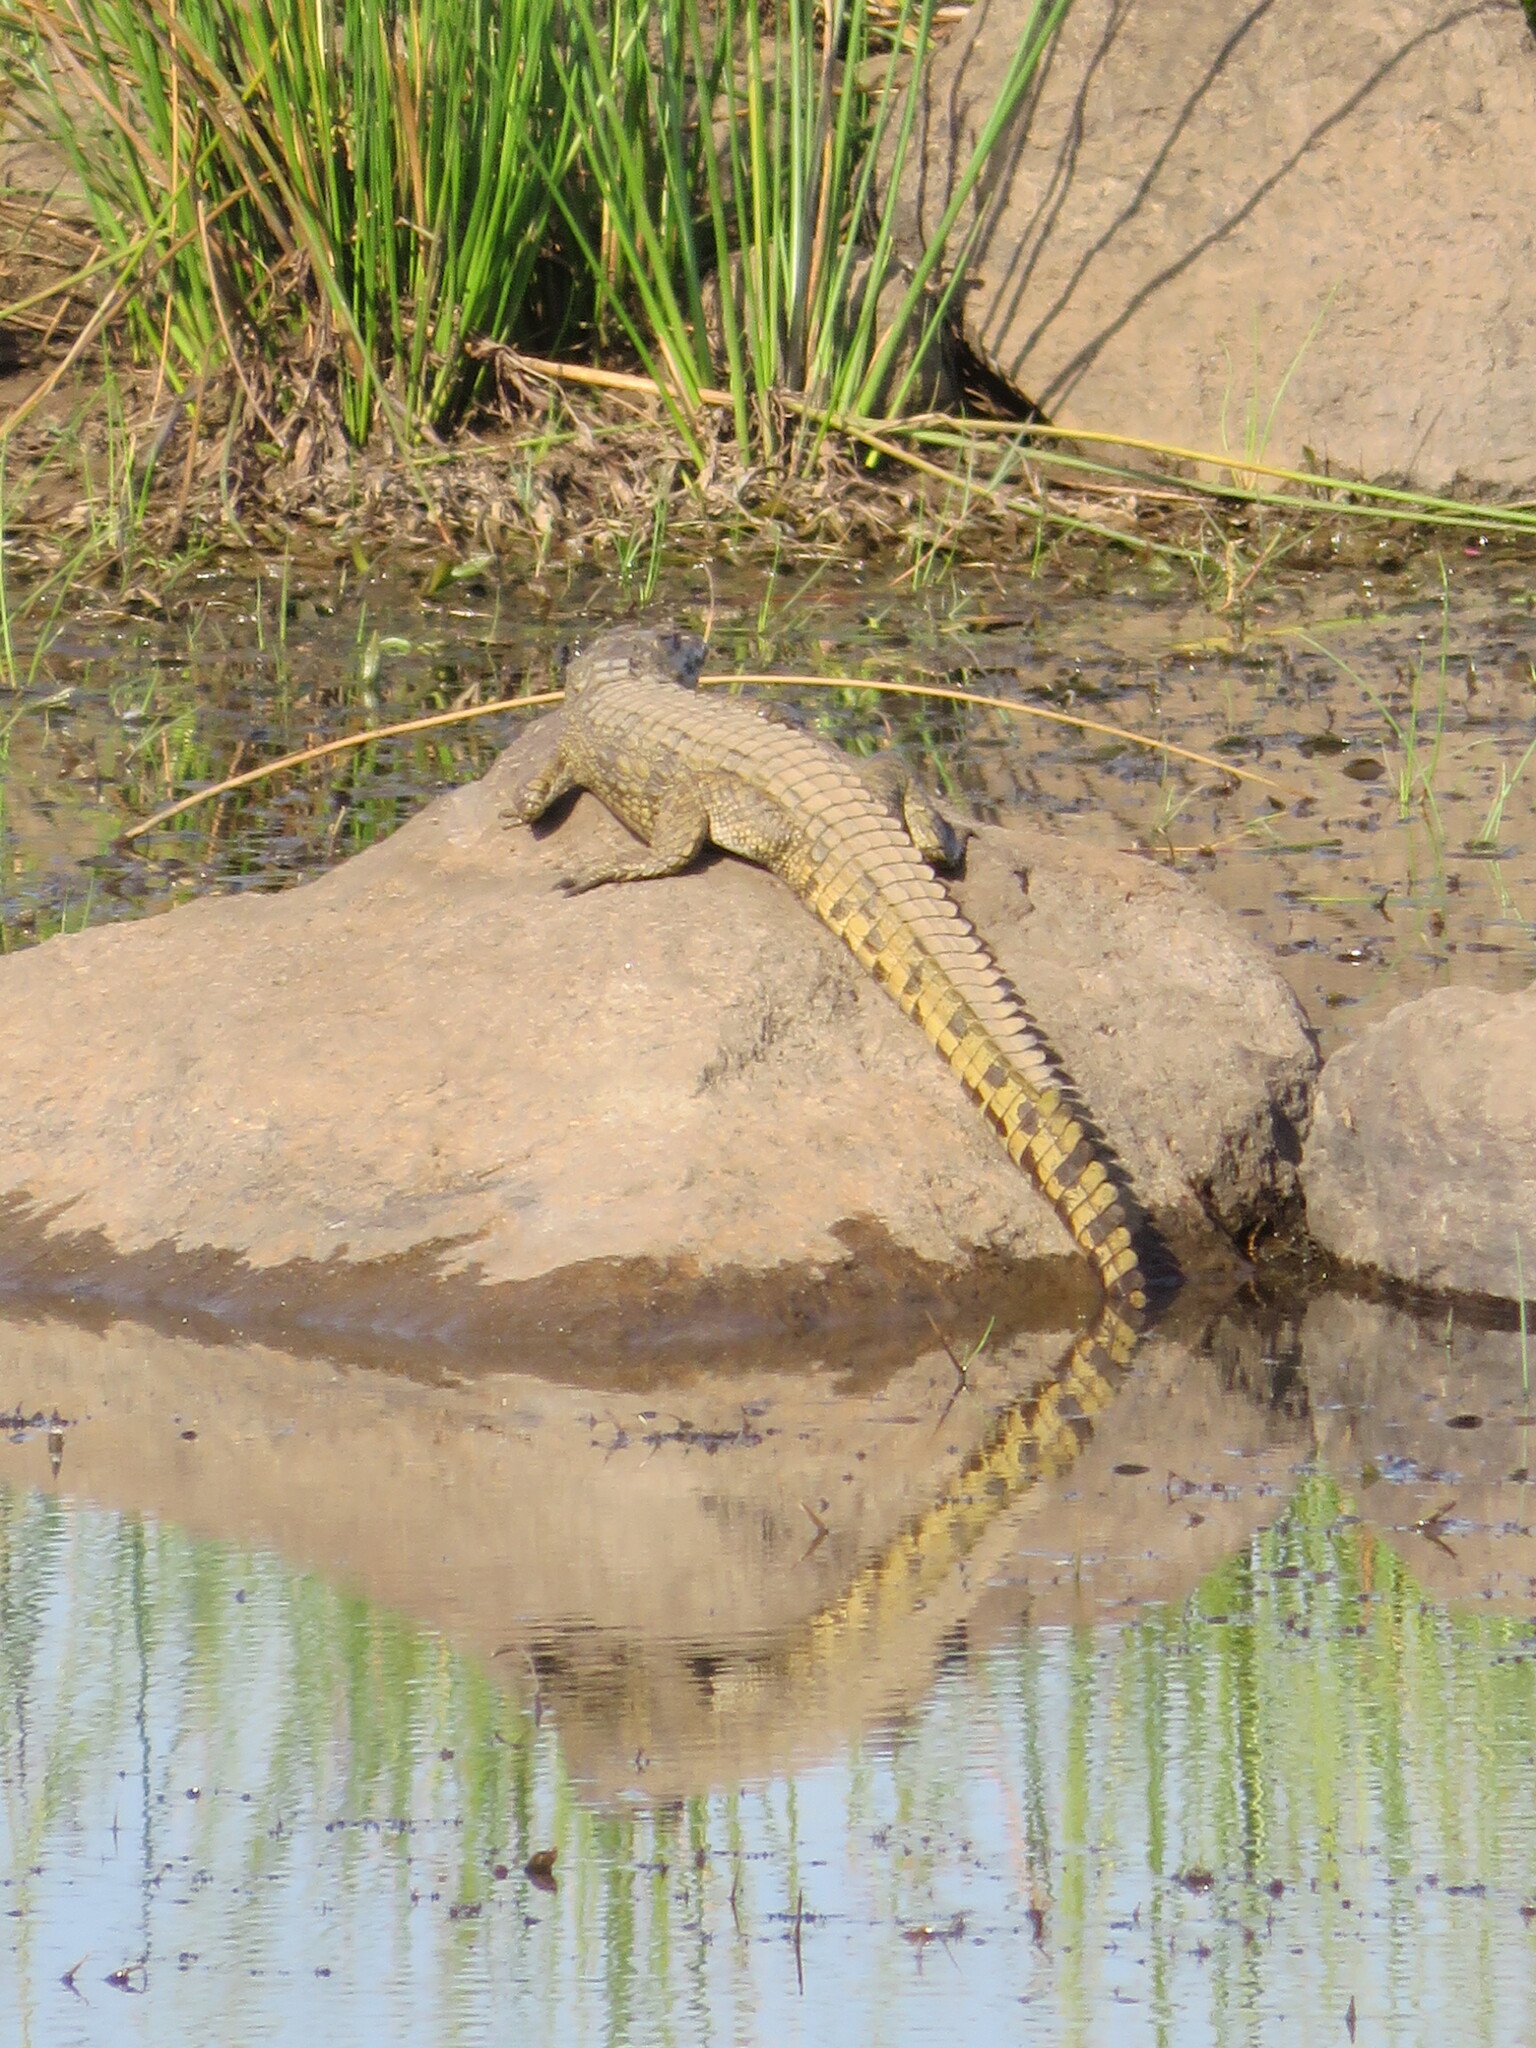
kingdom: Animalia
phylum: Chordata
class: Crocodylia
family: Crocodylidae
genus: Crocodylus
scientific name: Crocodylus niloticus
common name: Nile crocodile
